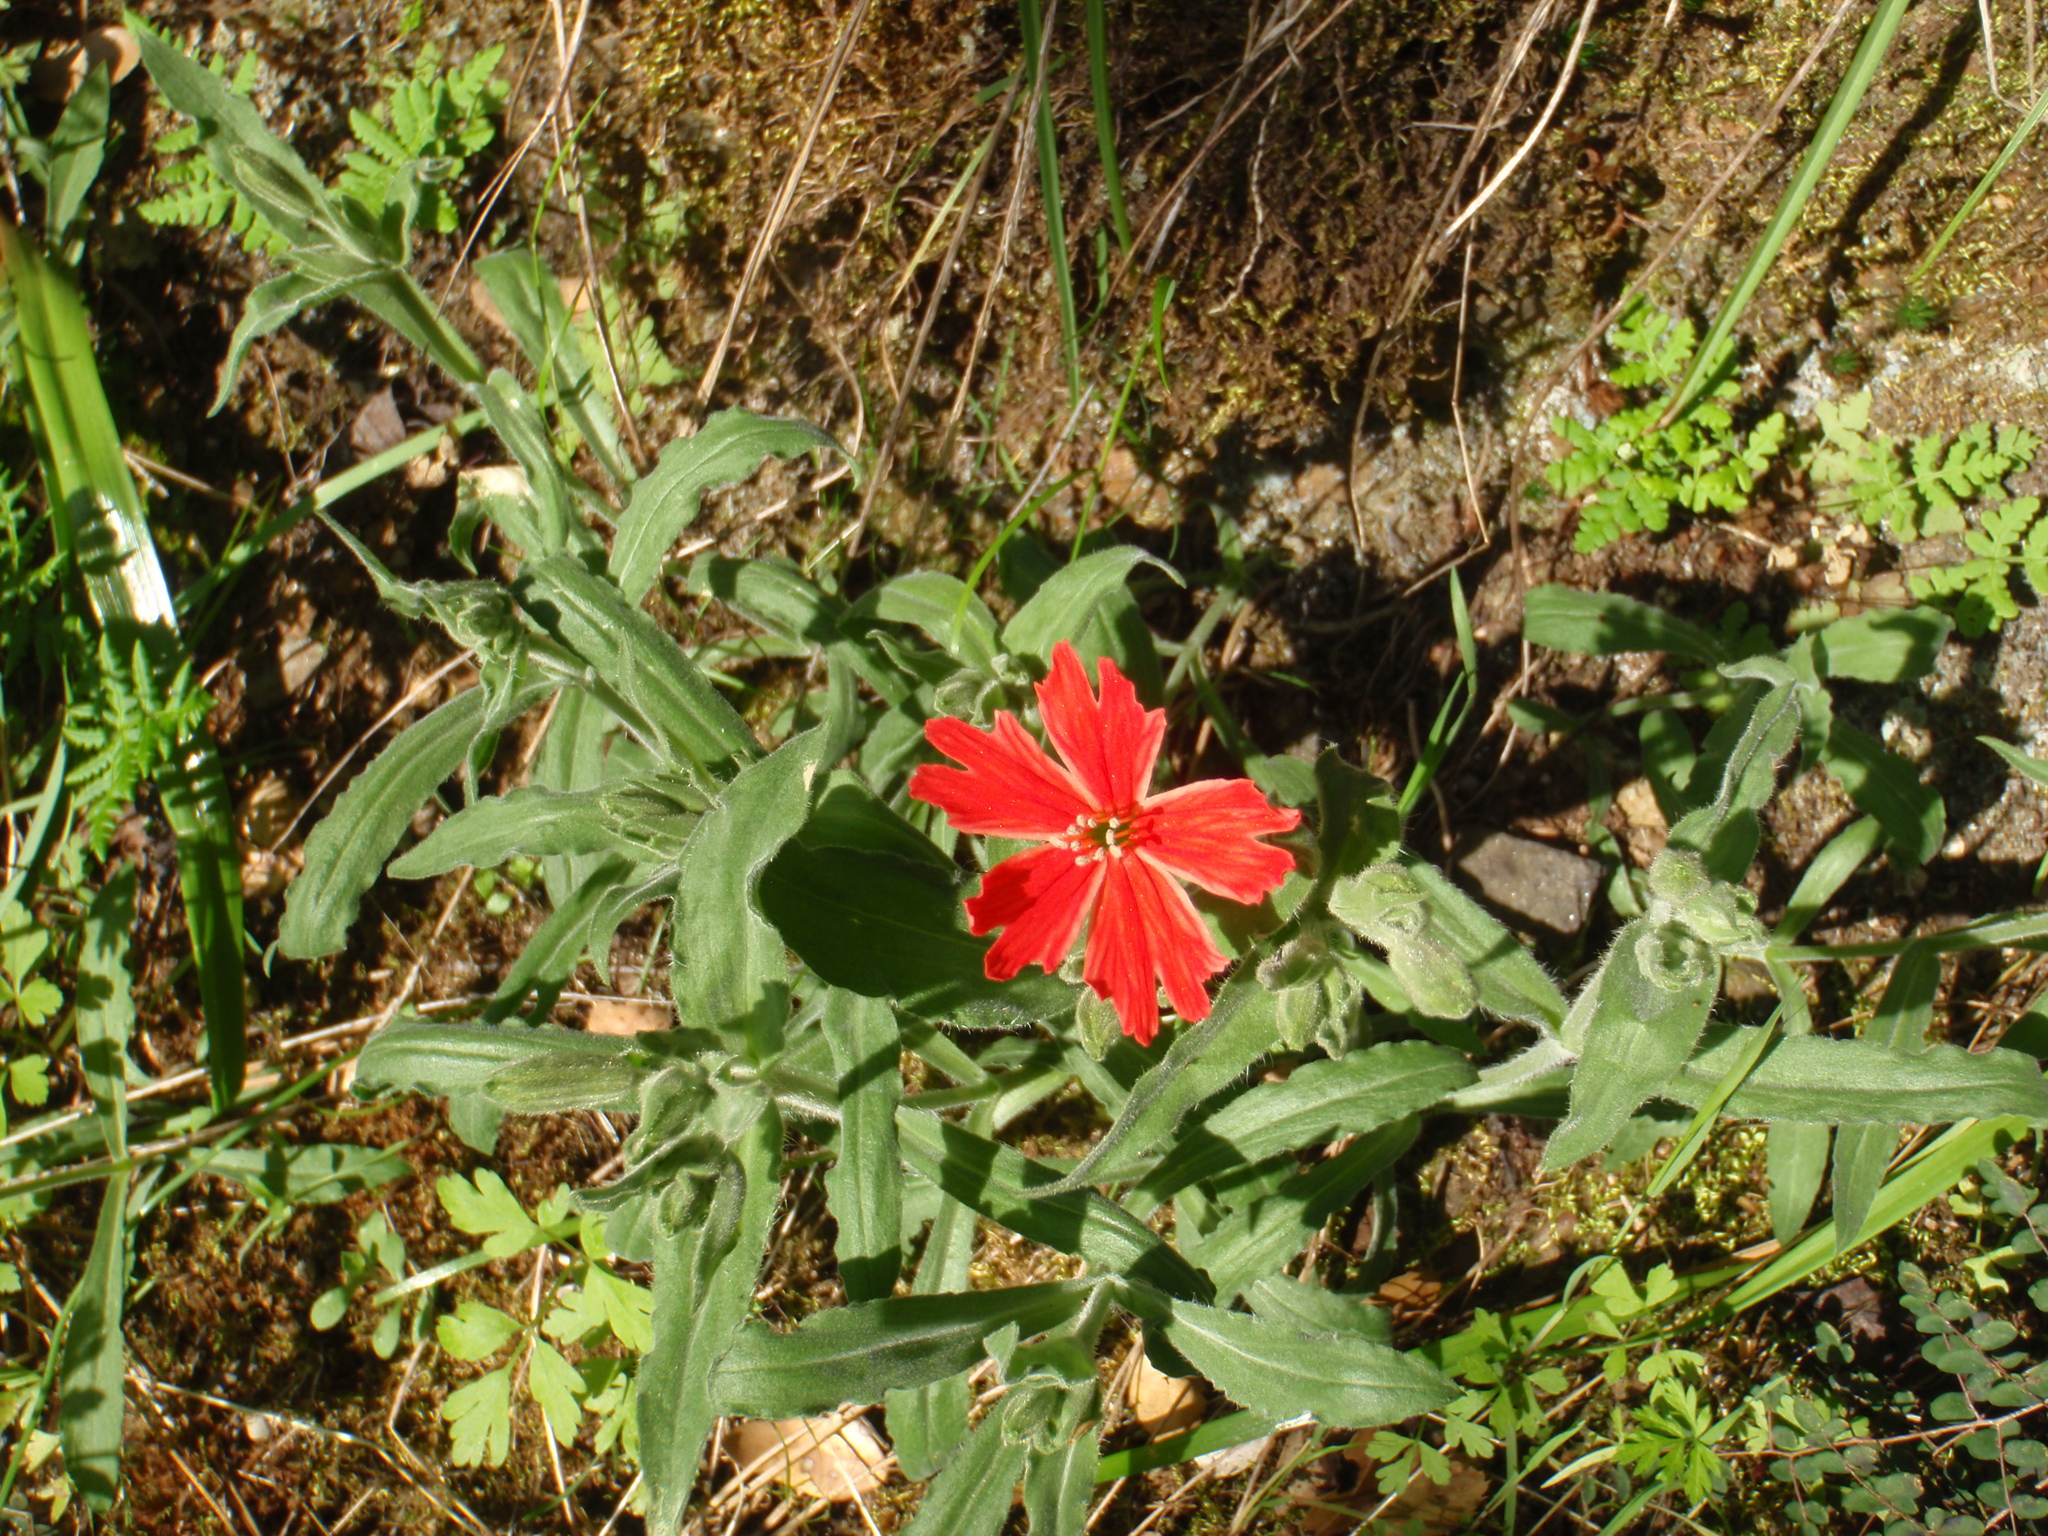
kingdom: Plantae
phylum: Tracheophyta
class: Magnoliopsida
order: Caryophyllales
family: Caryophyllaceae
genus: Silene
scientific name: Silene laciniata
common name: Indian-pink
